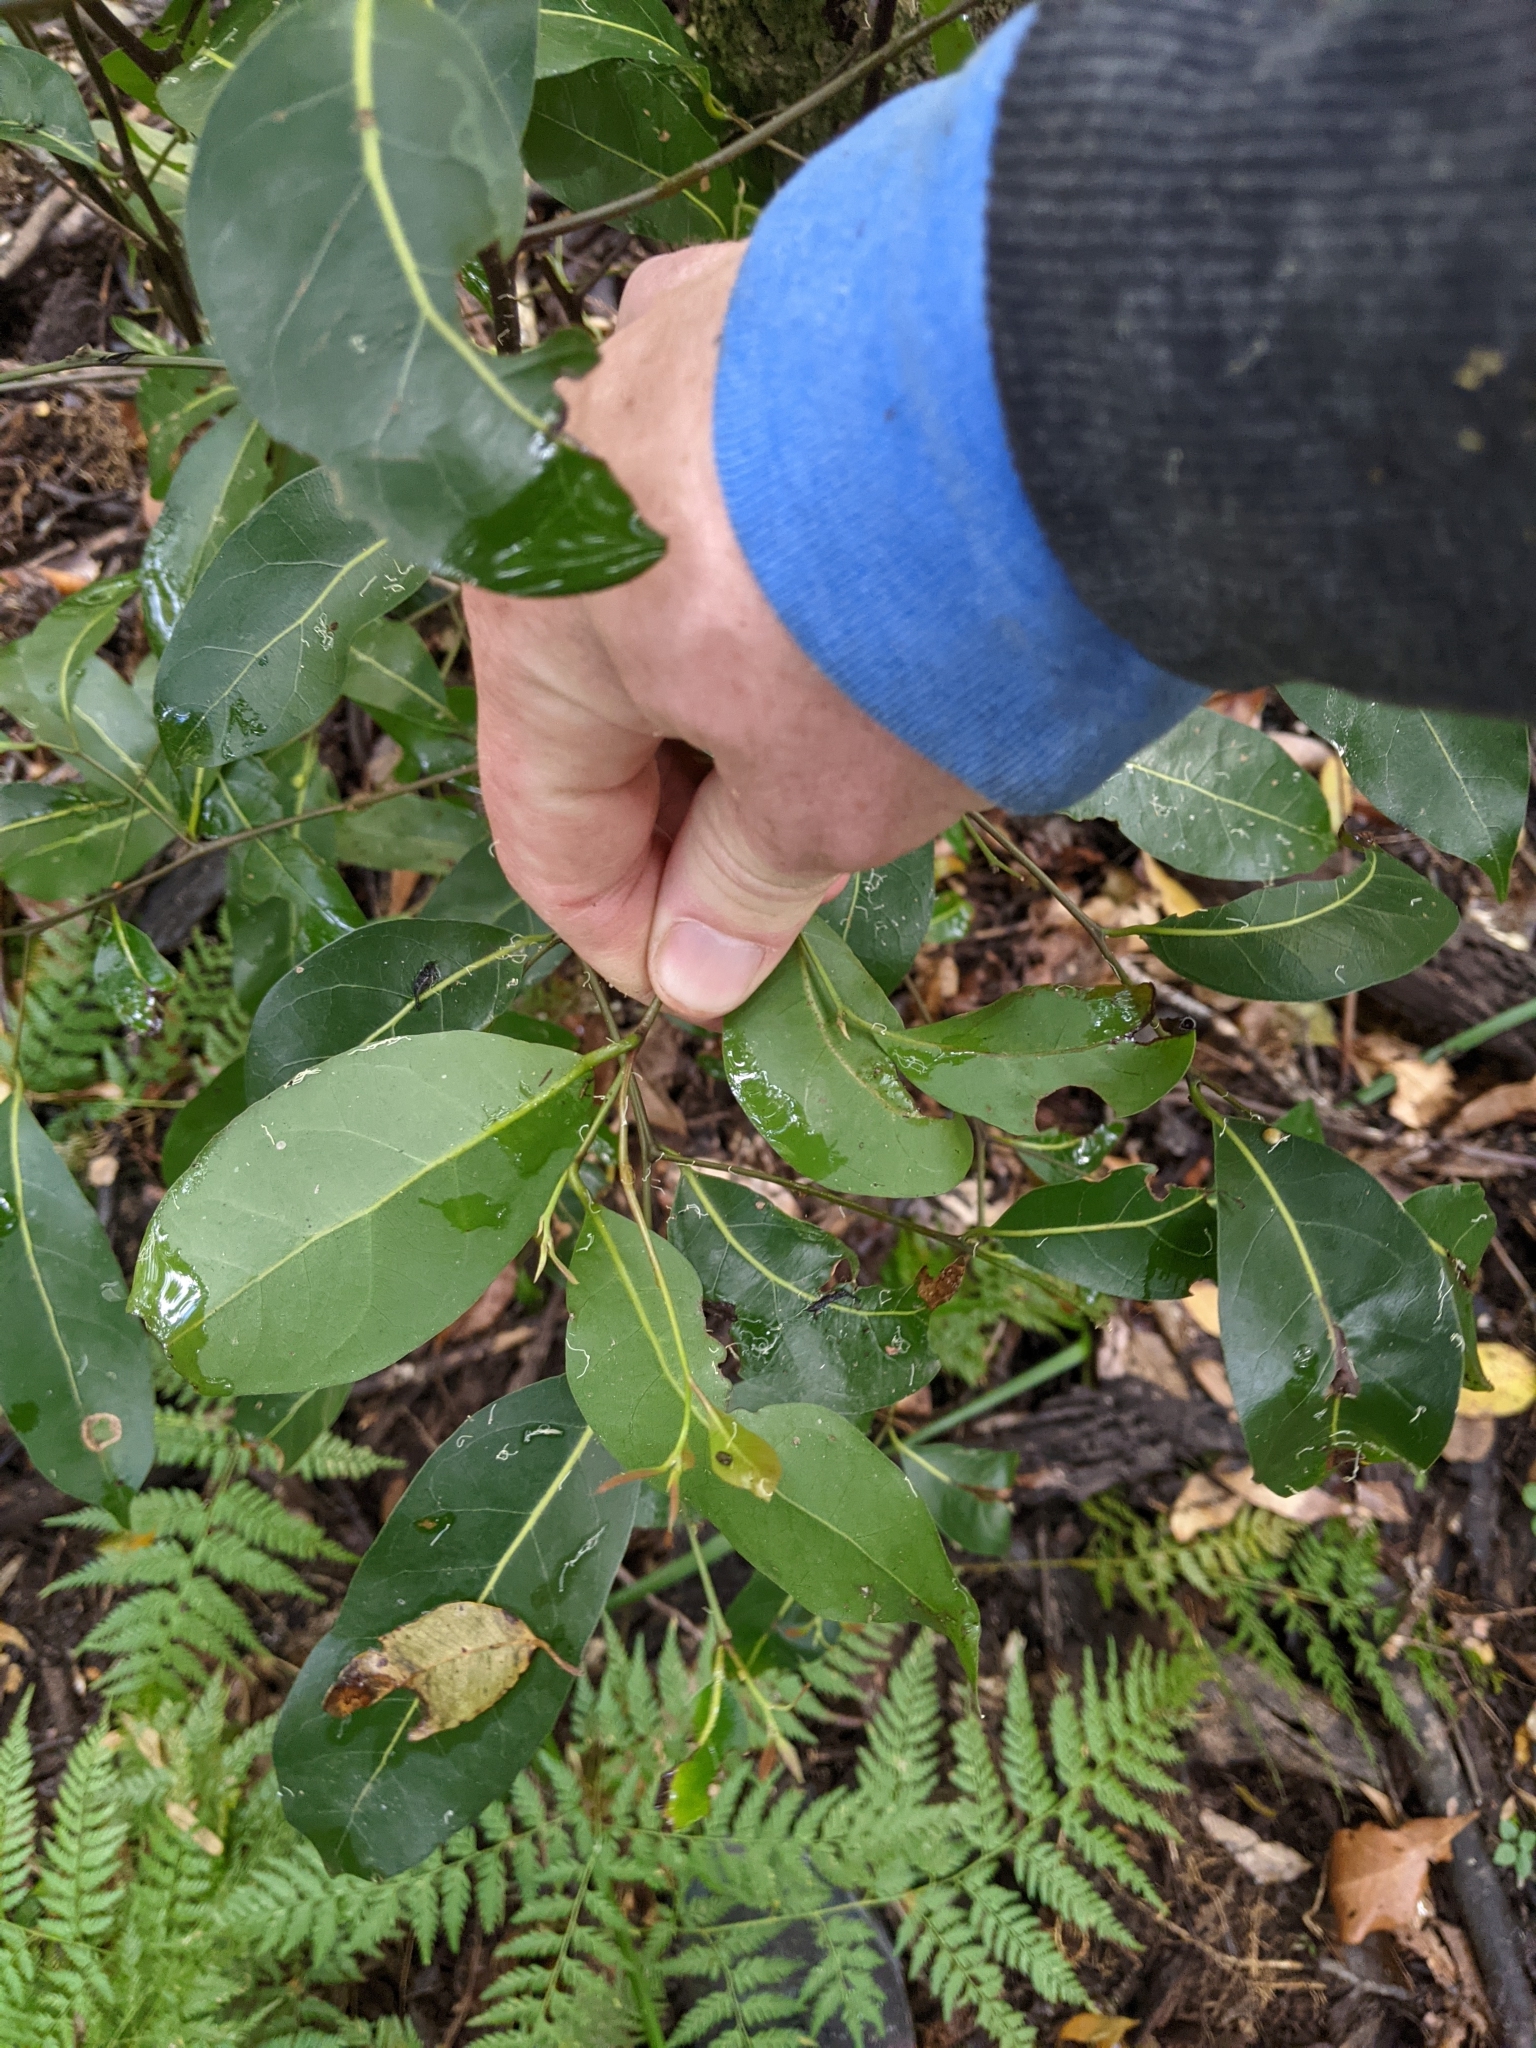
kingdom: Plantae
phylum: Tracheophyta
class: Magnoliopsida
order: Laurales
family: Lauraceae
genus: Cryptocarya
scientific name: Cryptocarya microneura
